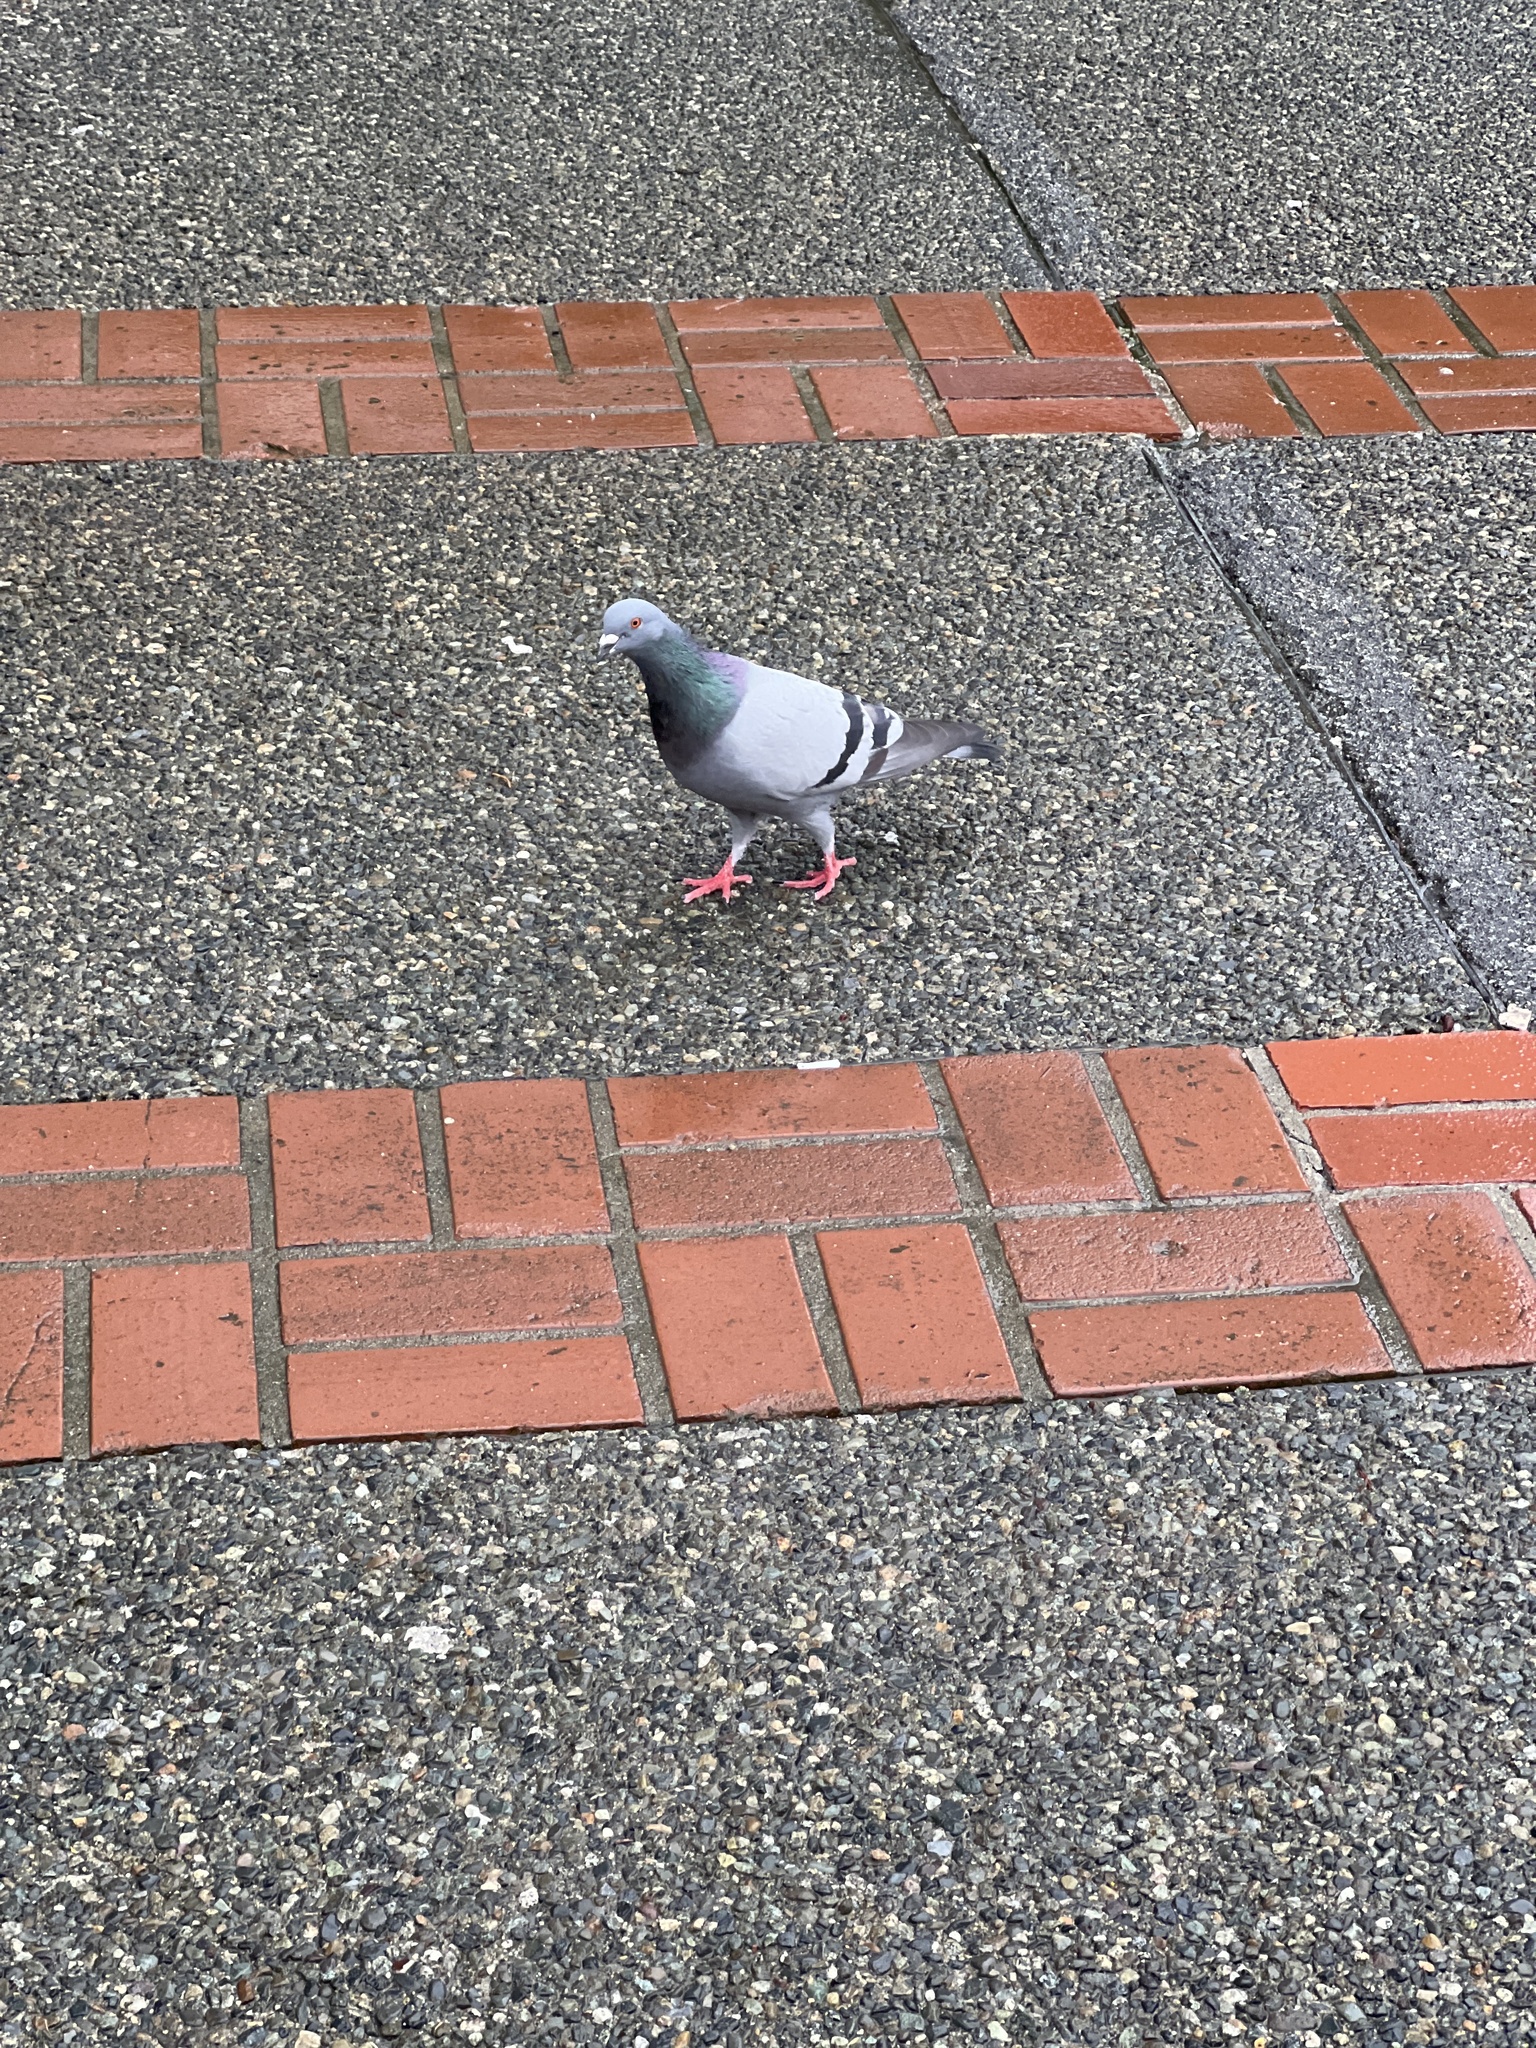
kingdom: Animalia
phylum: Chordata
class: Aves
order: Columbiformes
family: Columbidae
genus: Columba
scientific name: Columba livia
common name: Rock pigeon
